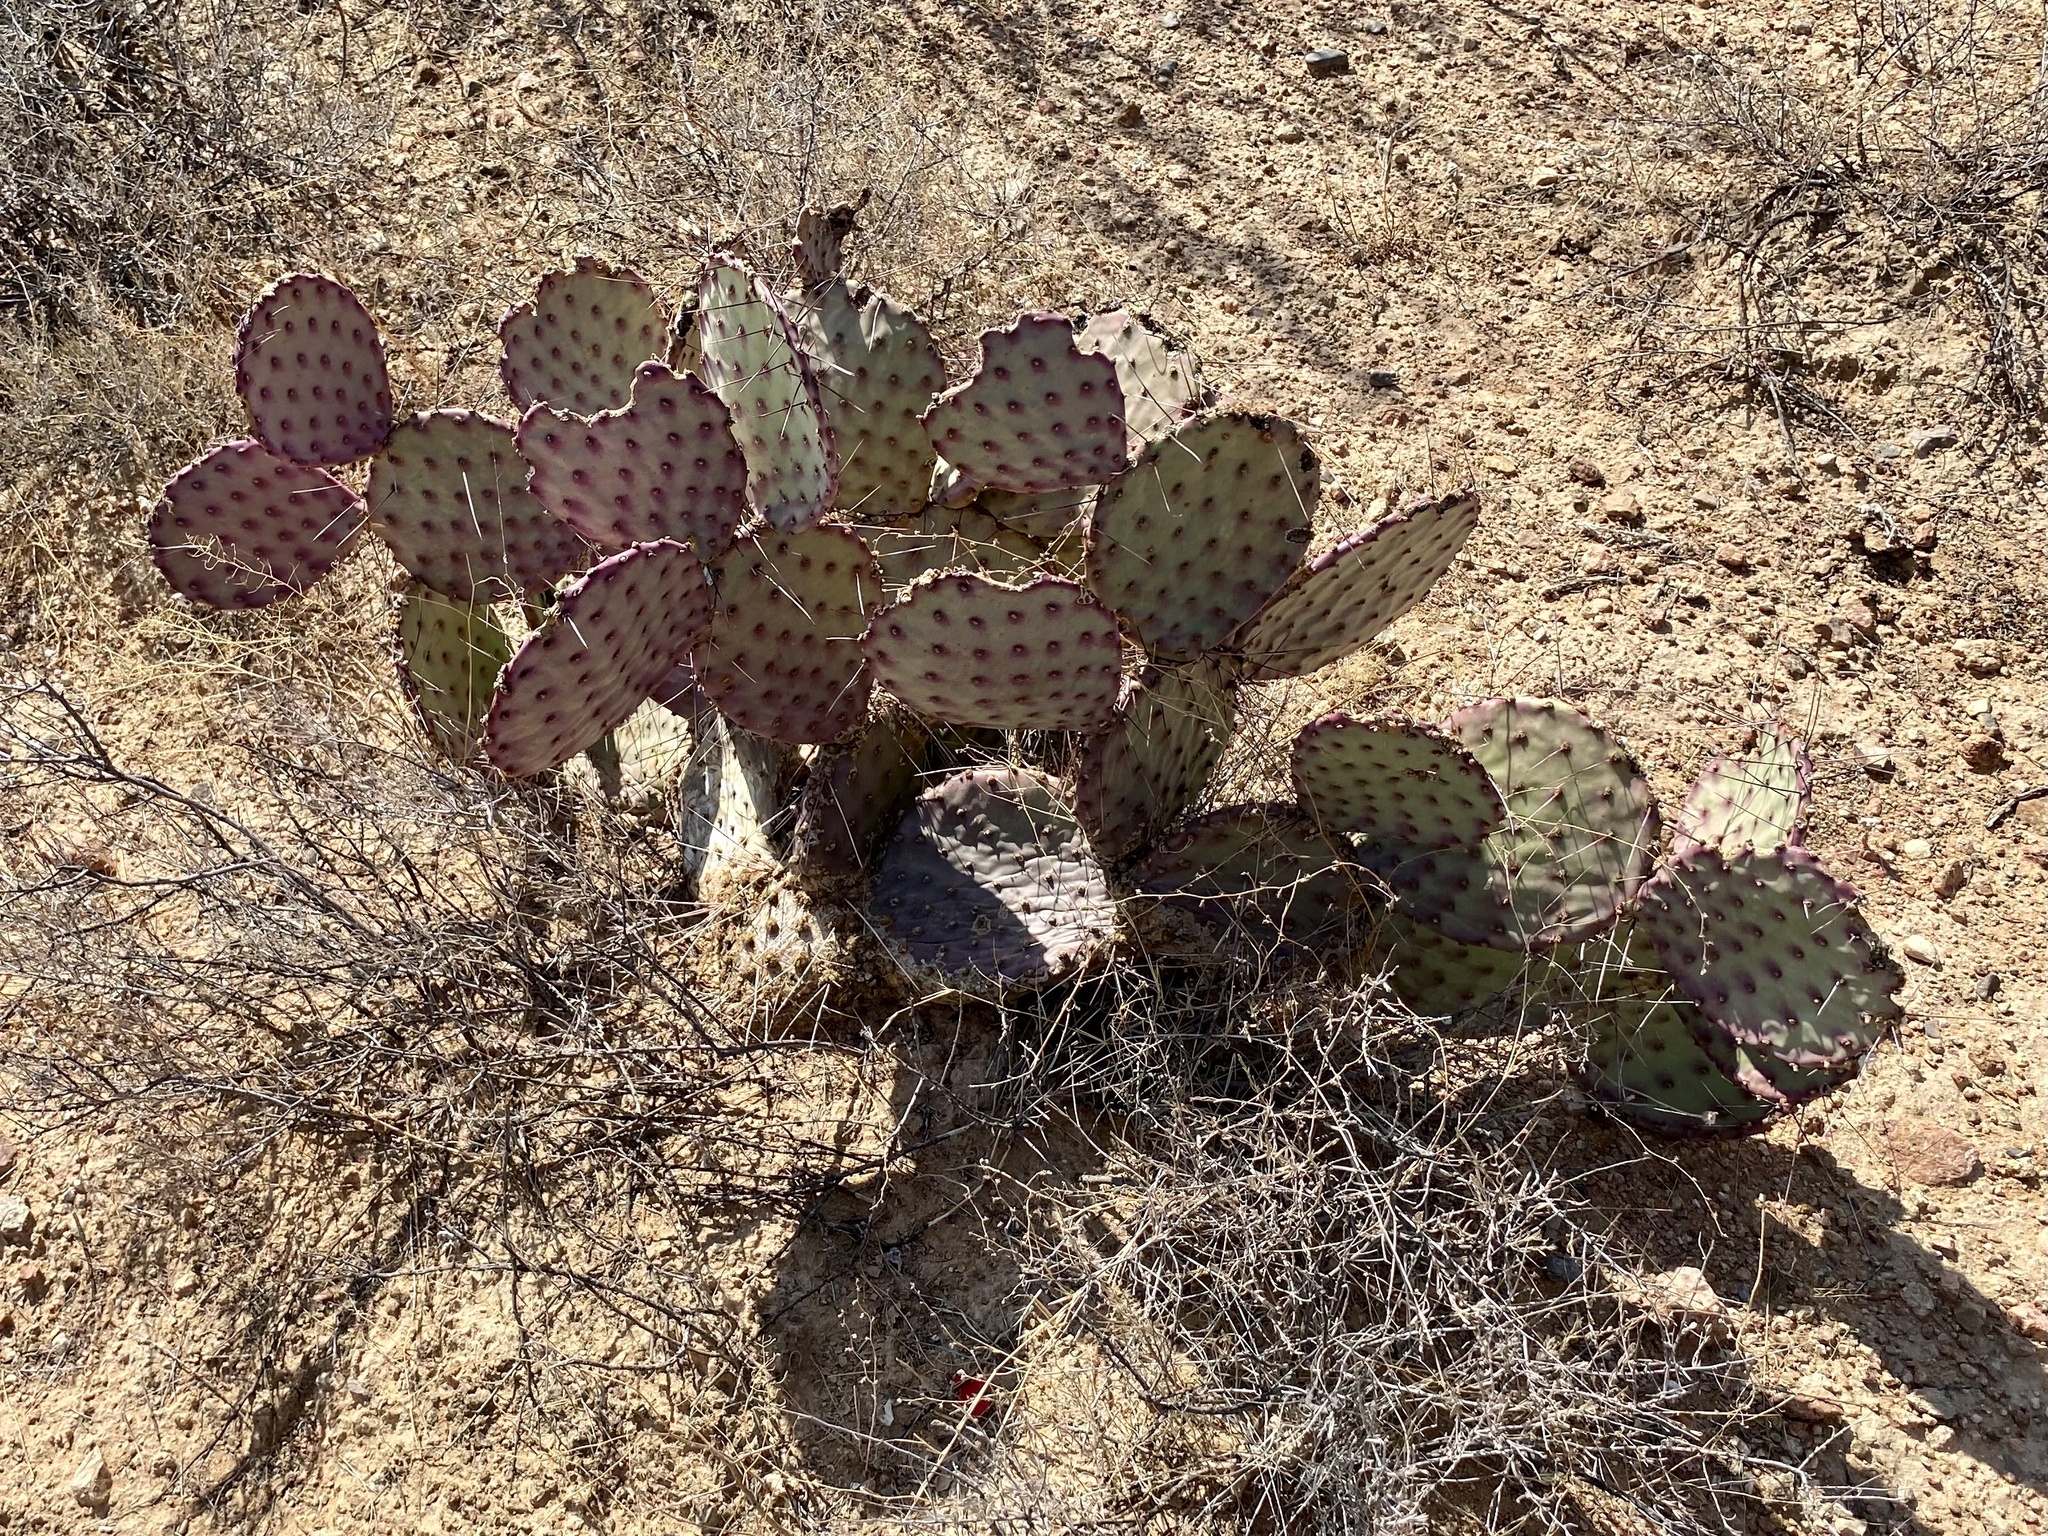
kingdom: Plantae
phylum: Tracheophyta
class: Magnoliopsida
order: Caryophyllales
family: Cactaceae
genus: Opuntia
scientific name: Opuntia macrocentra
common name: Purple prickly-pear
